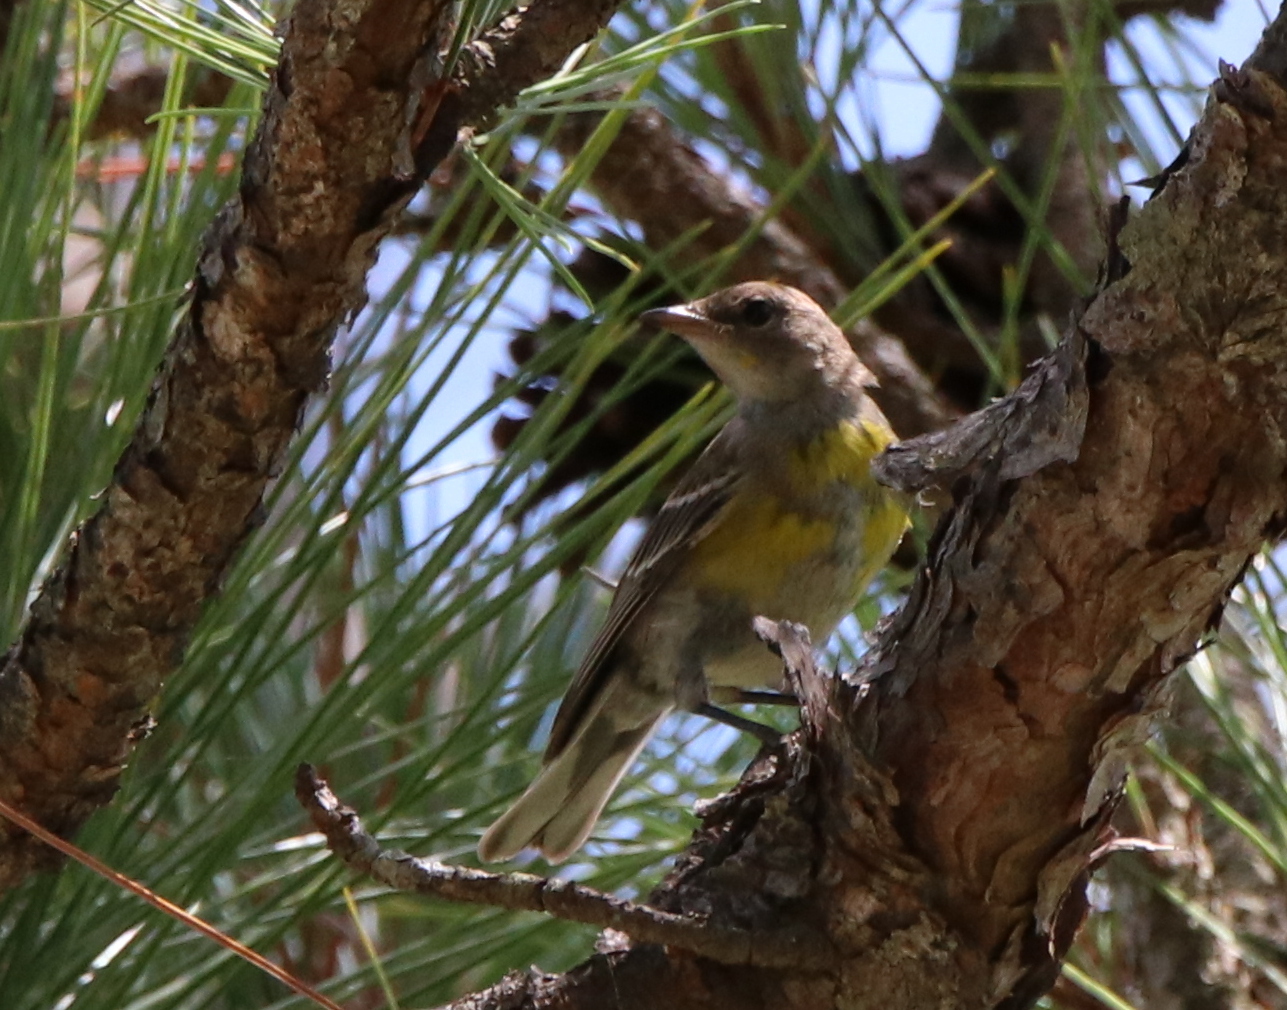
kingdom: Animalia
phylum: Chordata
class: Aves
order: Passeriformes
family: Parulidae
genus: Setophaga
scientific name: Setophaga pinus
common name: Pine warbler
